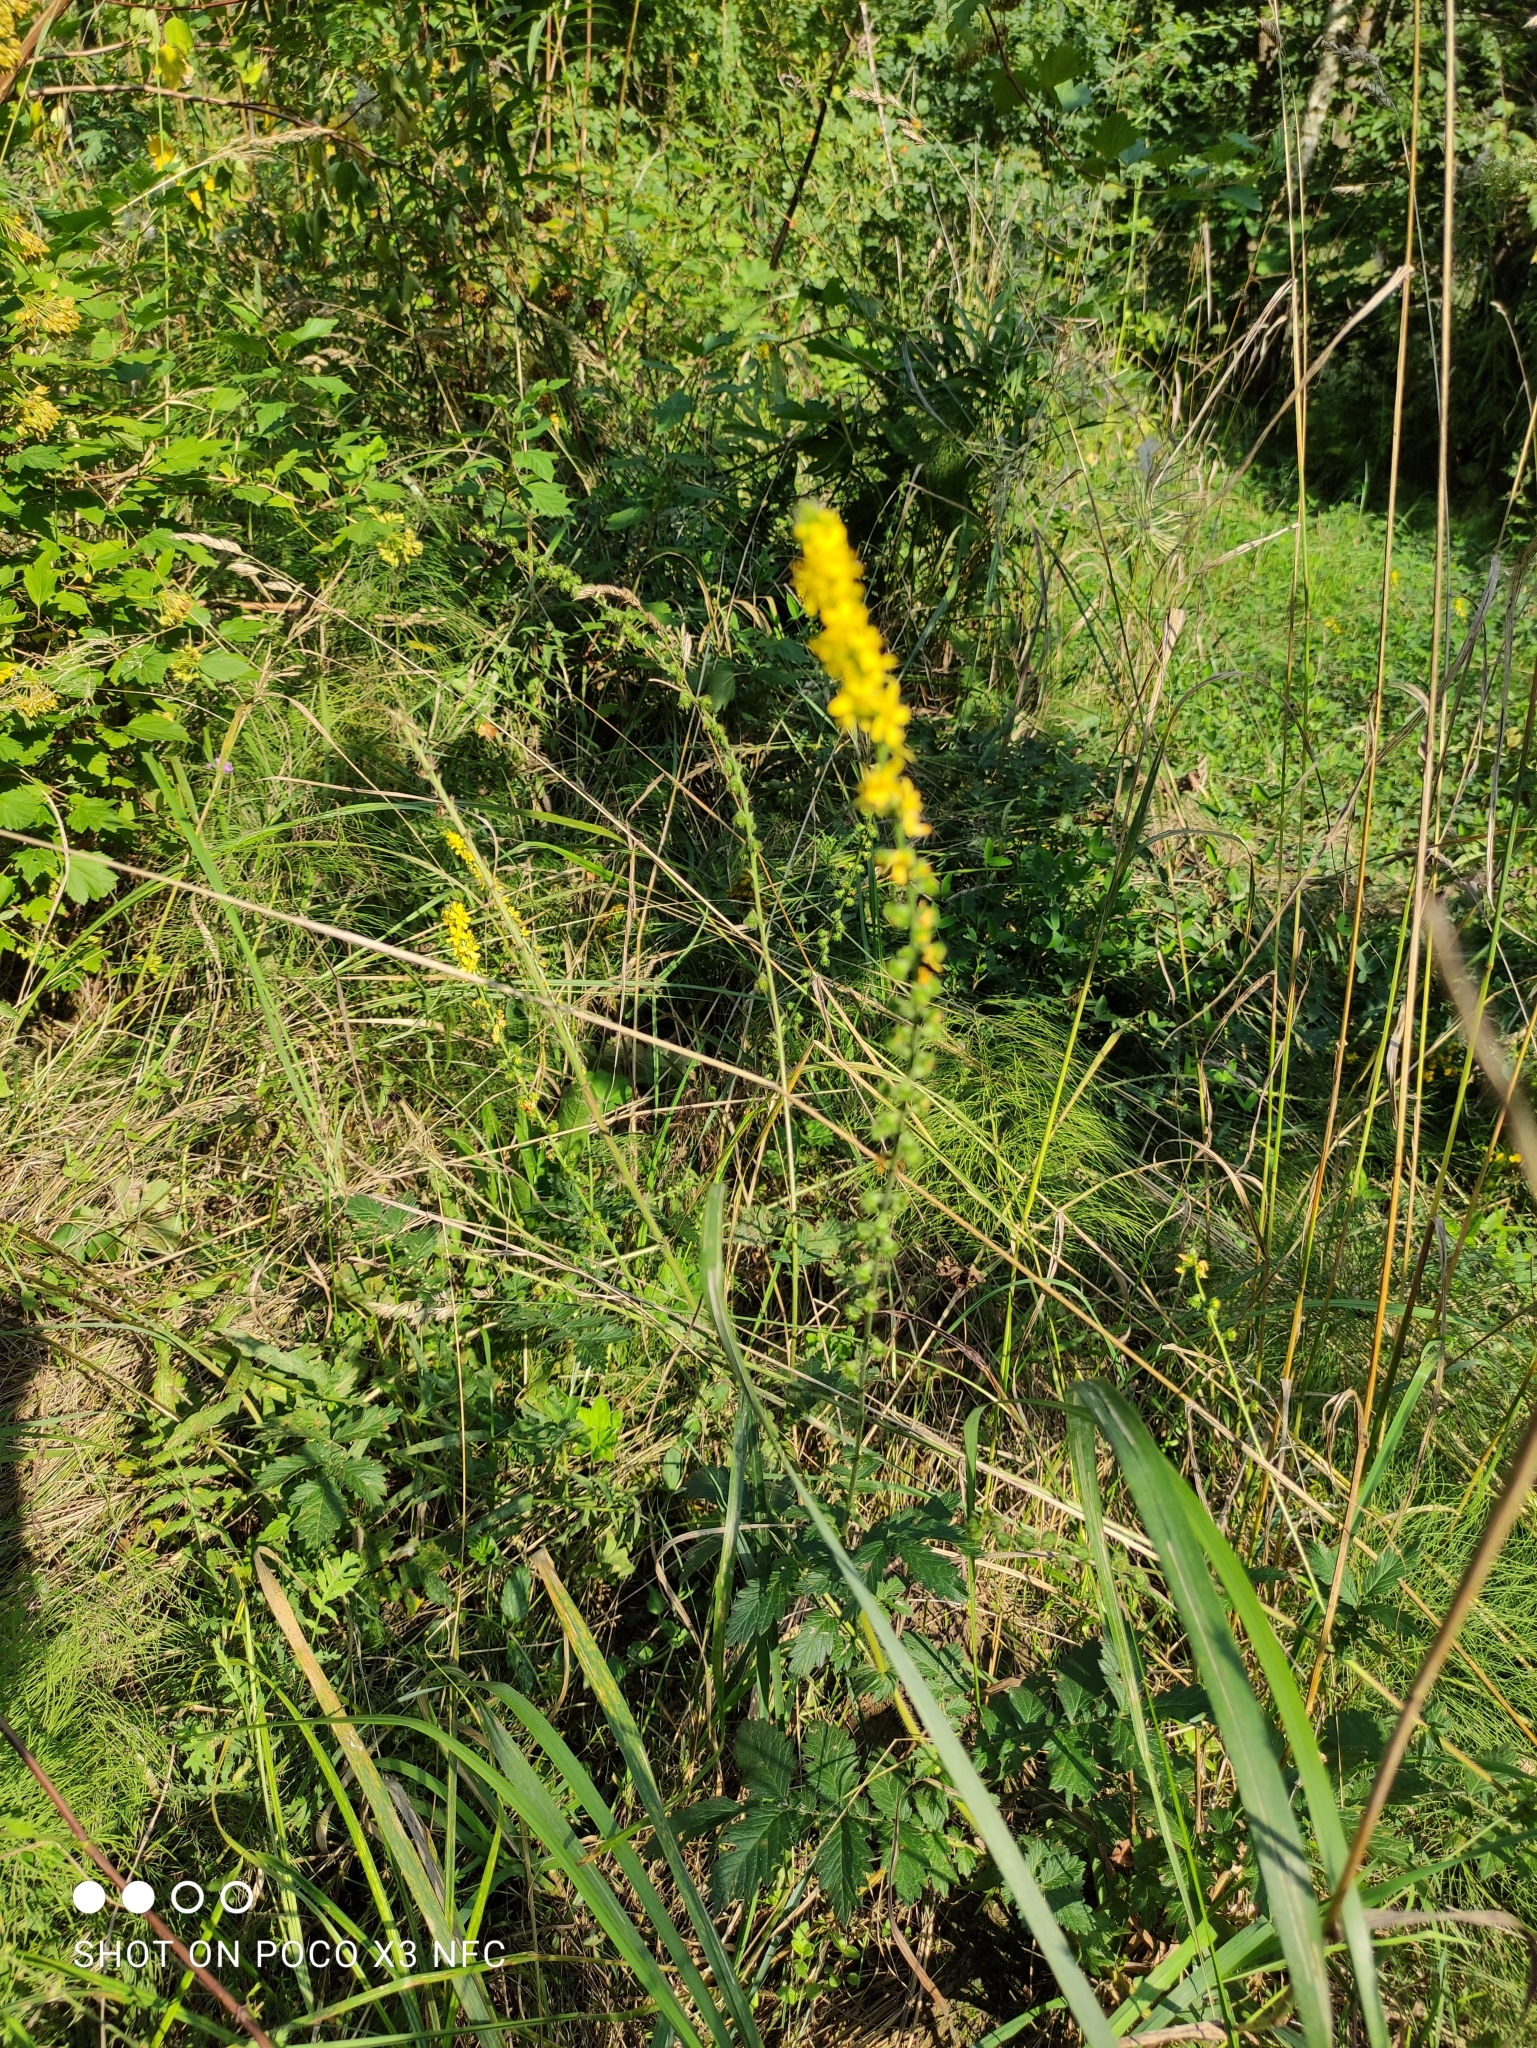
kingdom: Plantae
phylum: Tracheophyta
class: Magnoliopsida
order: Rosales
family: Rosaceae
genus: Agrimonia
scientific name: Agrimonia eupatoria
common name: Agrimony
